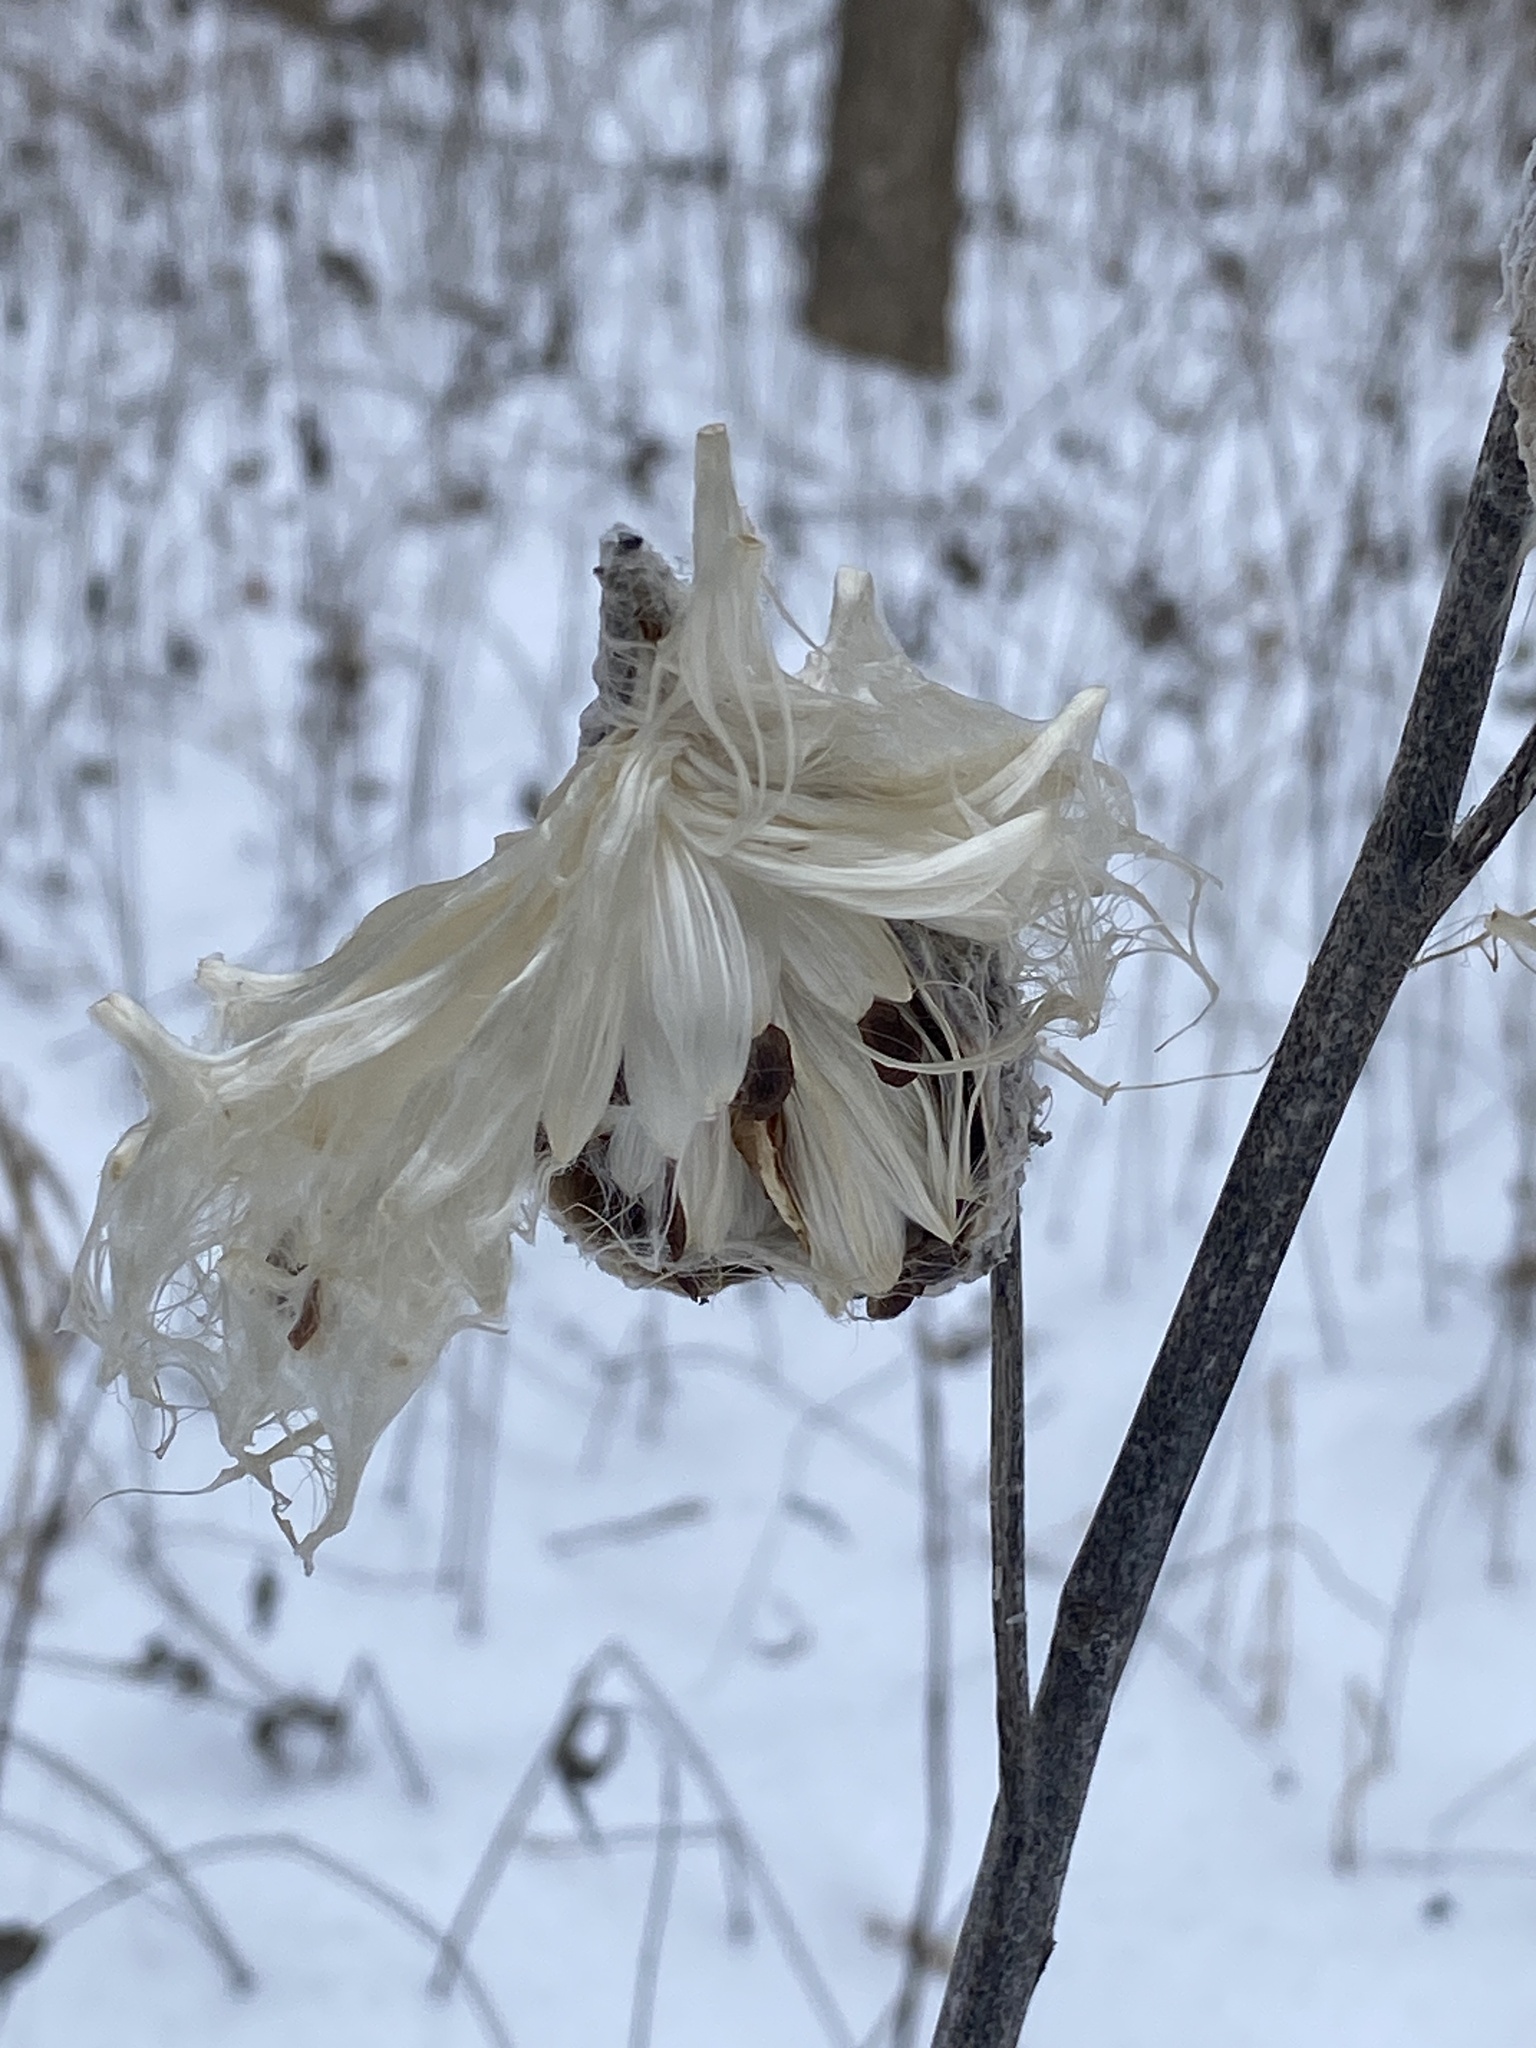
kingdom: Plantae
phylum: Tracheophyta
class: Magnoliopsida
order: Gentianales
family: Apocynaceae
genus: Asclepias
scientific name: Asclepias syriaca
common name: Common milkweed
